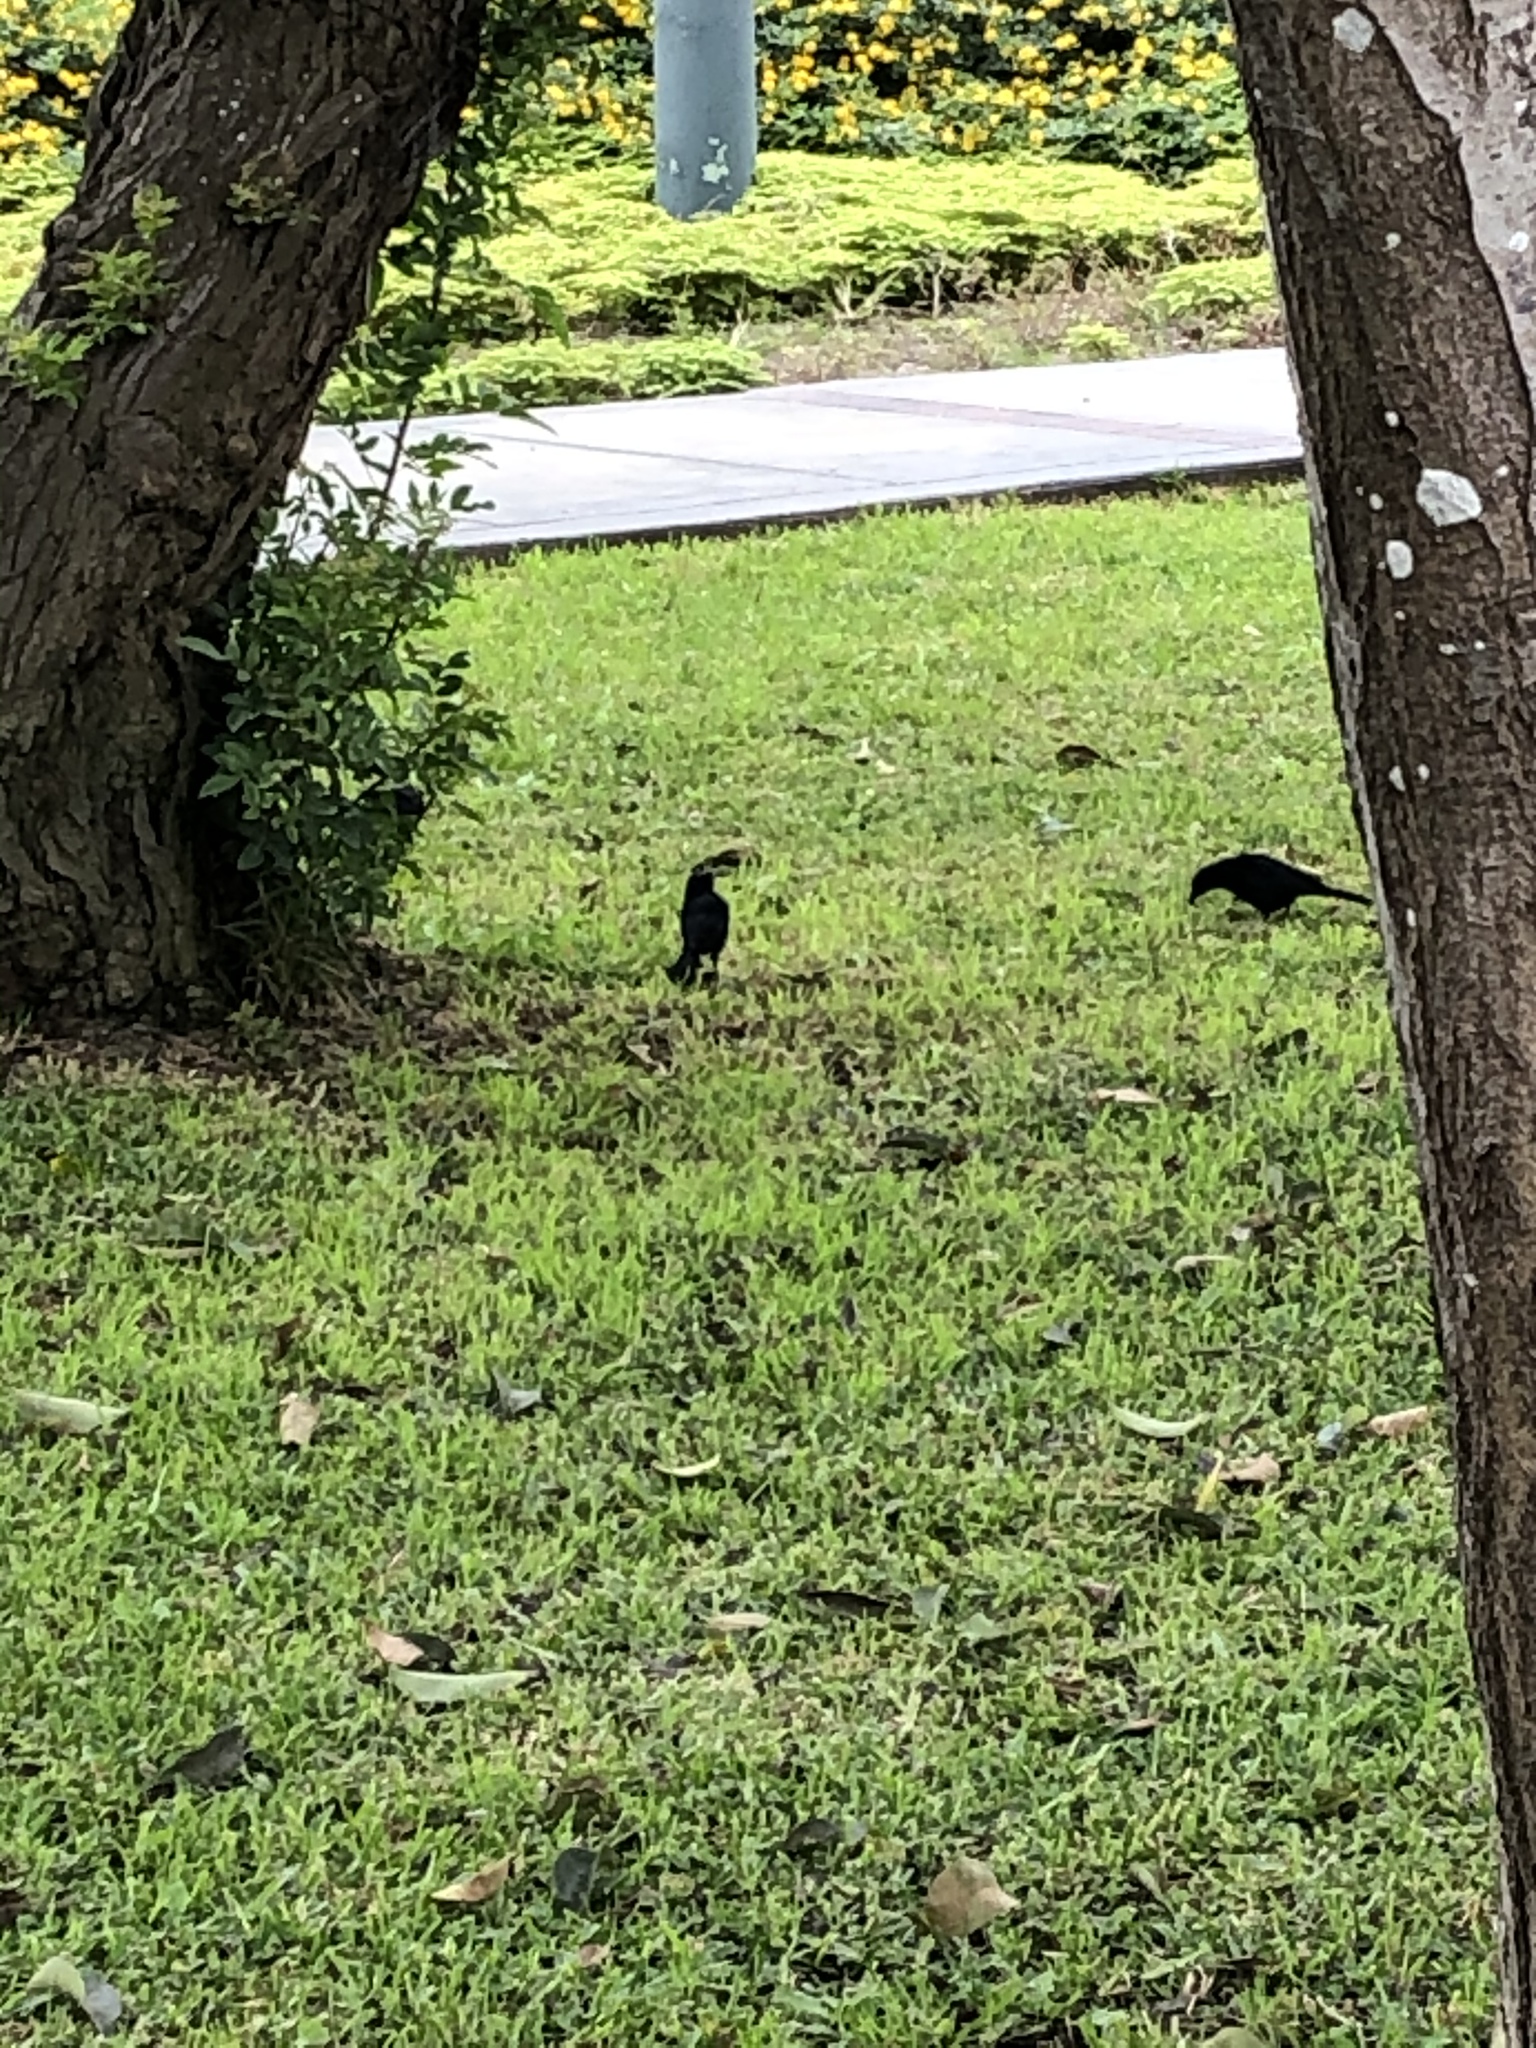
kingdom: Animalia
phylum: Chordata
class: Aves
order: Passeriformes
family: Icteridae
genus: Molothrus
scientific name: Molothrus bonariensis
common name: Shiny cowbird
